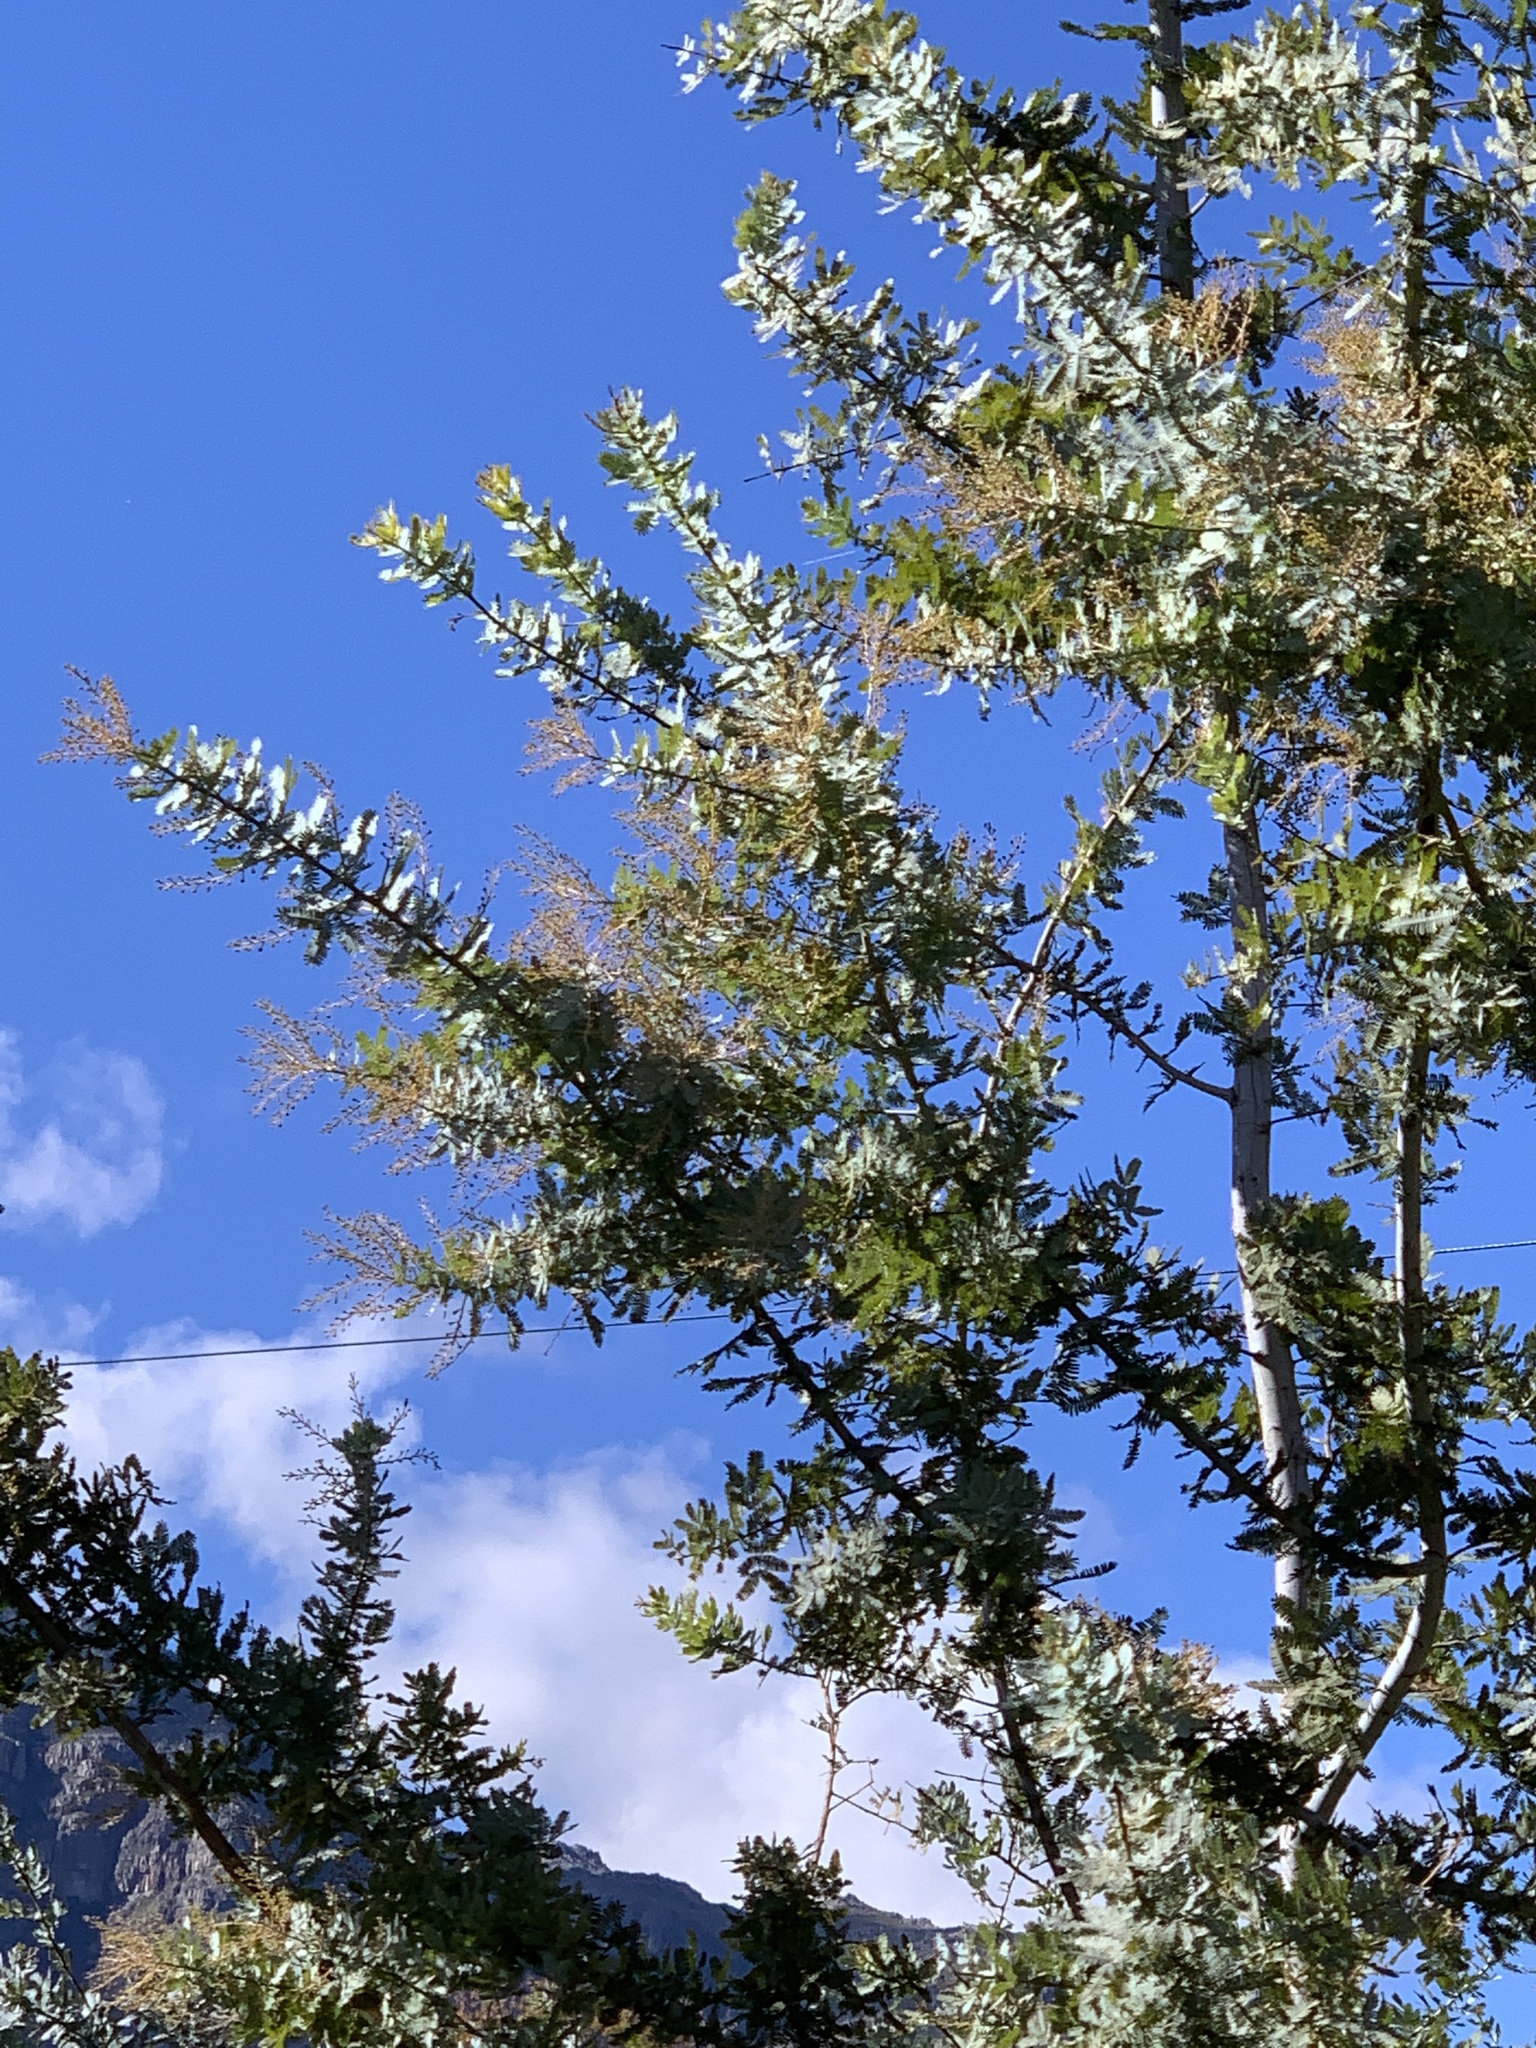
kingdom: Plantae
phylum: Tracheophyta
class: Magnoliopsida
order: Fabales
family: Fabaceae
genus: Acacia
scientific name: Acacia baileyana
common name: Cootamundra wattle
